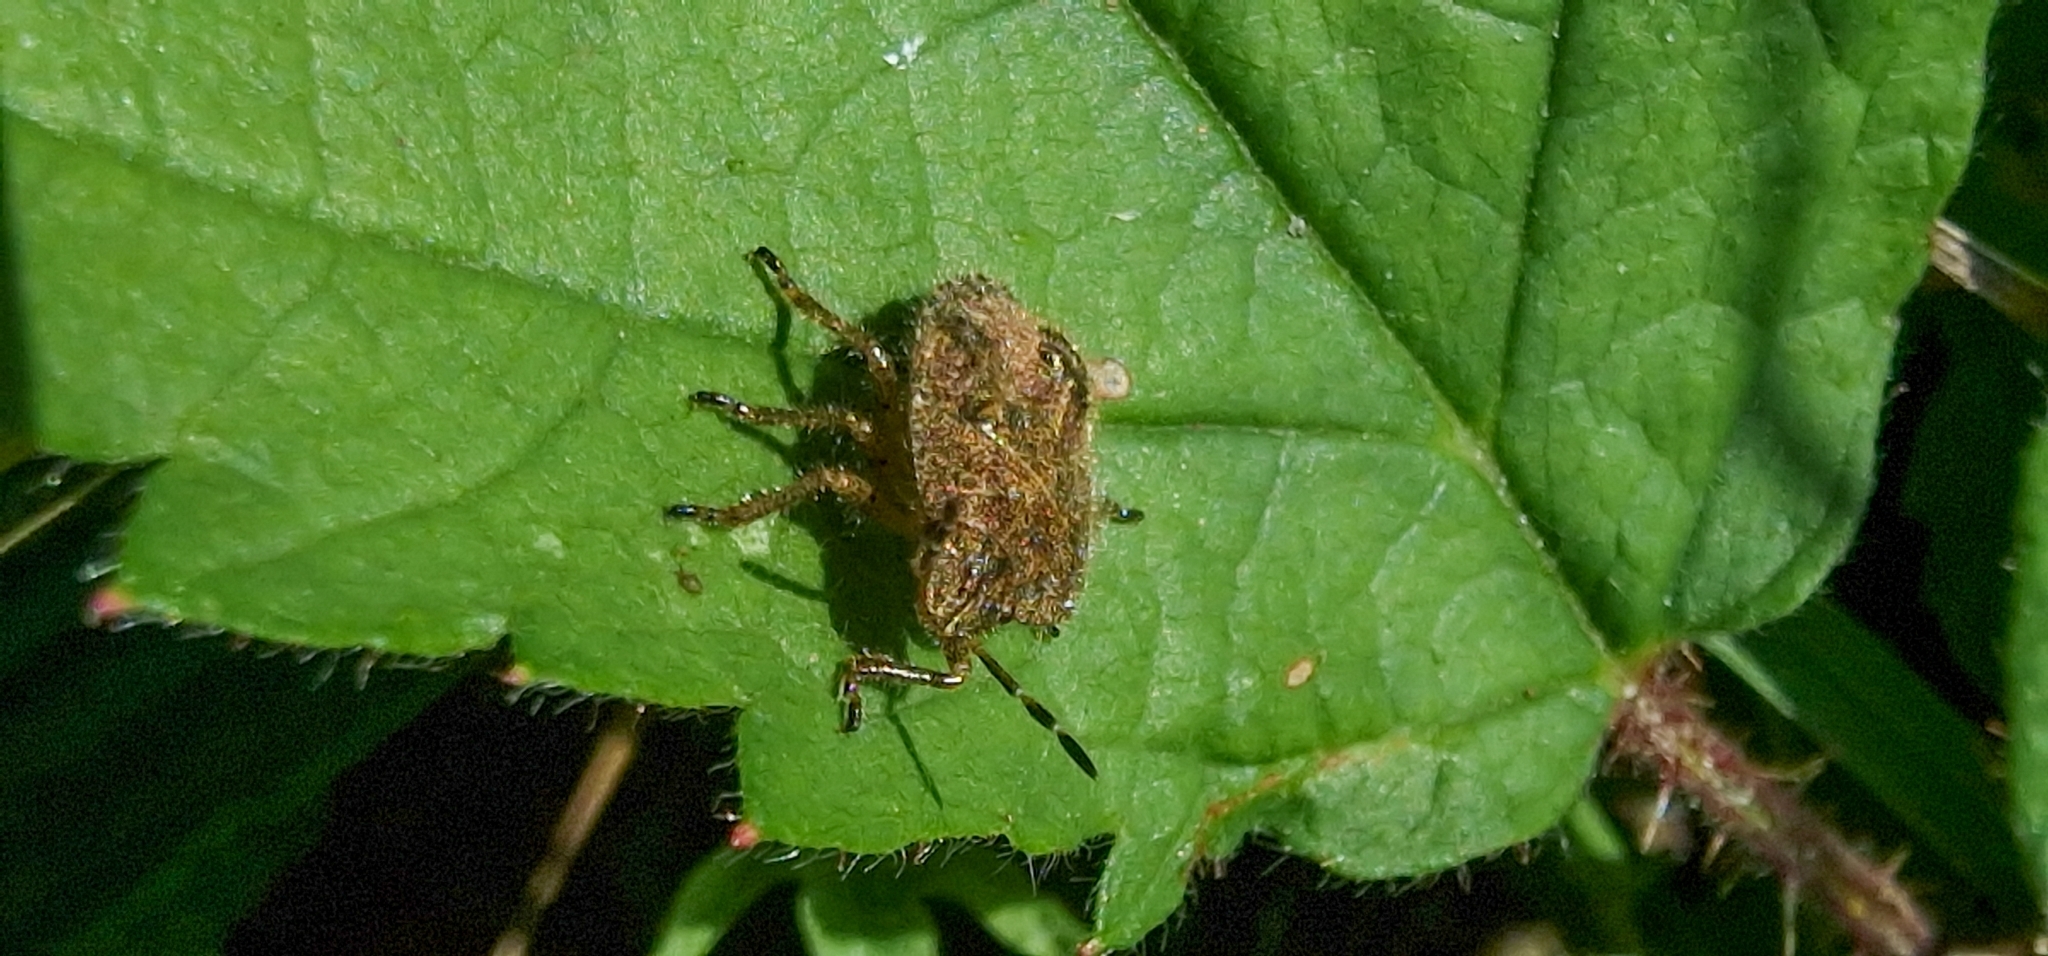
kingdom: Animalia
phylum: Arthropoda
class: Insecta
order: Hemiptera
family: Pentatomidae
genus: Dolycoris
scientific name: Dolycoris baccarum
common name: Sloe bug
